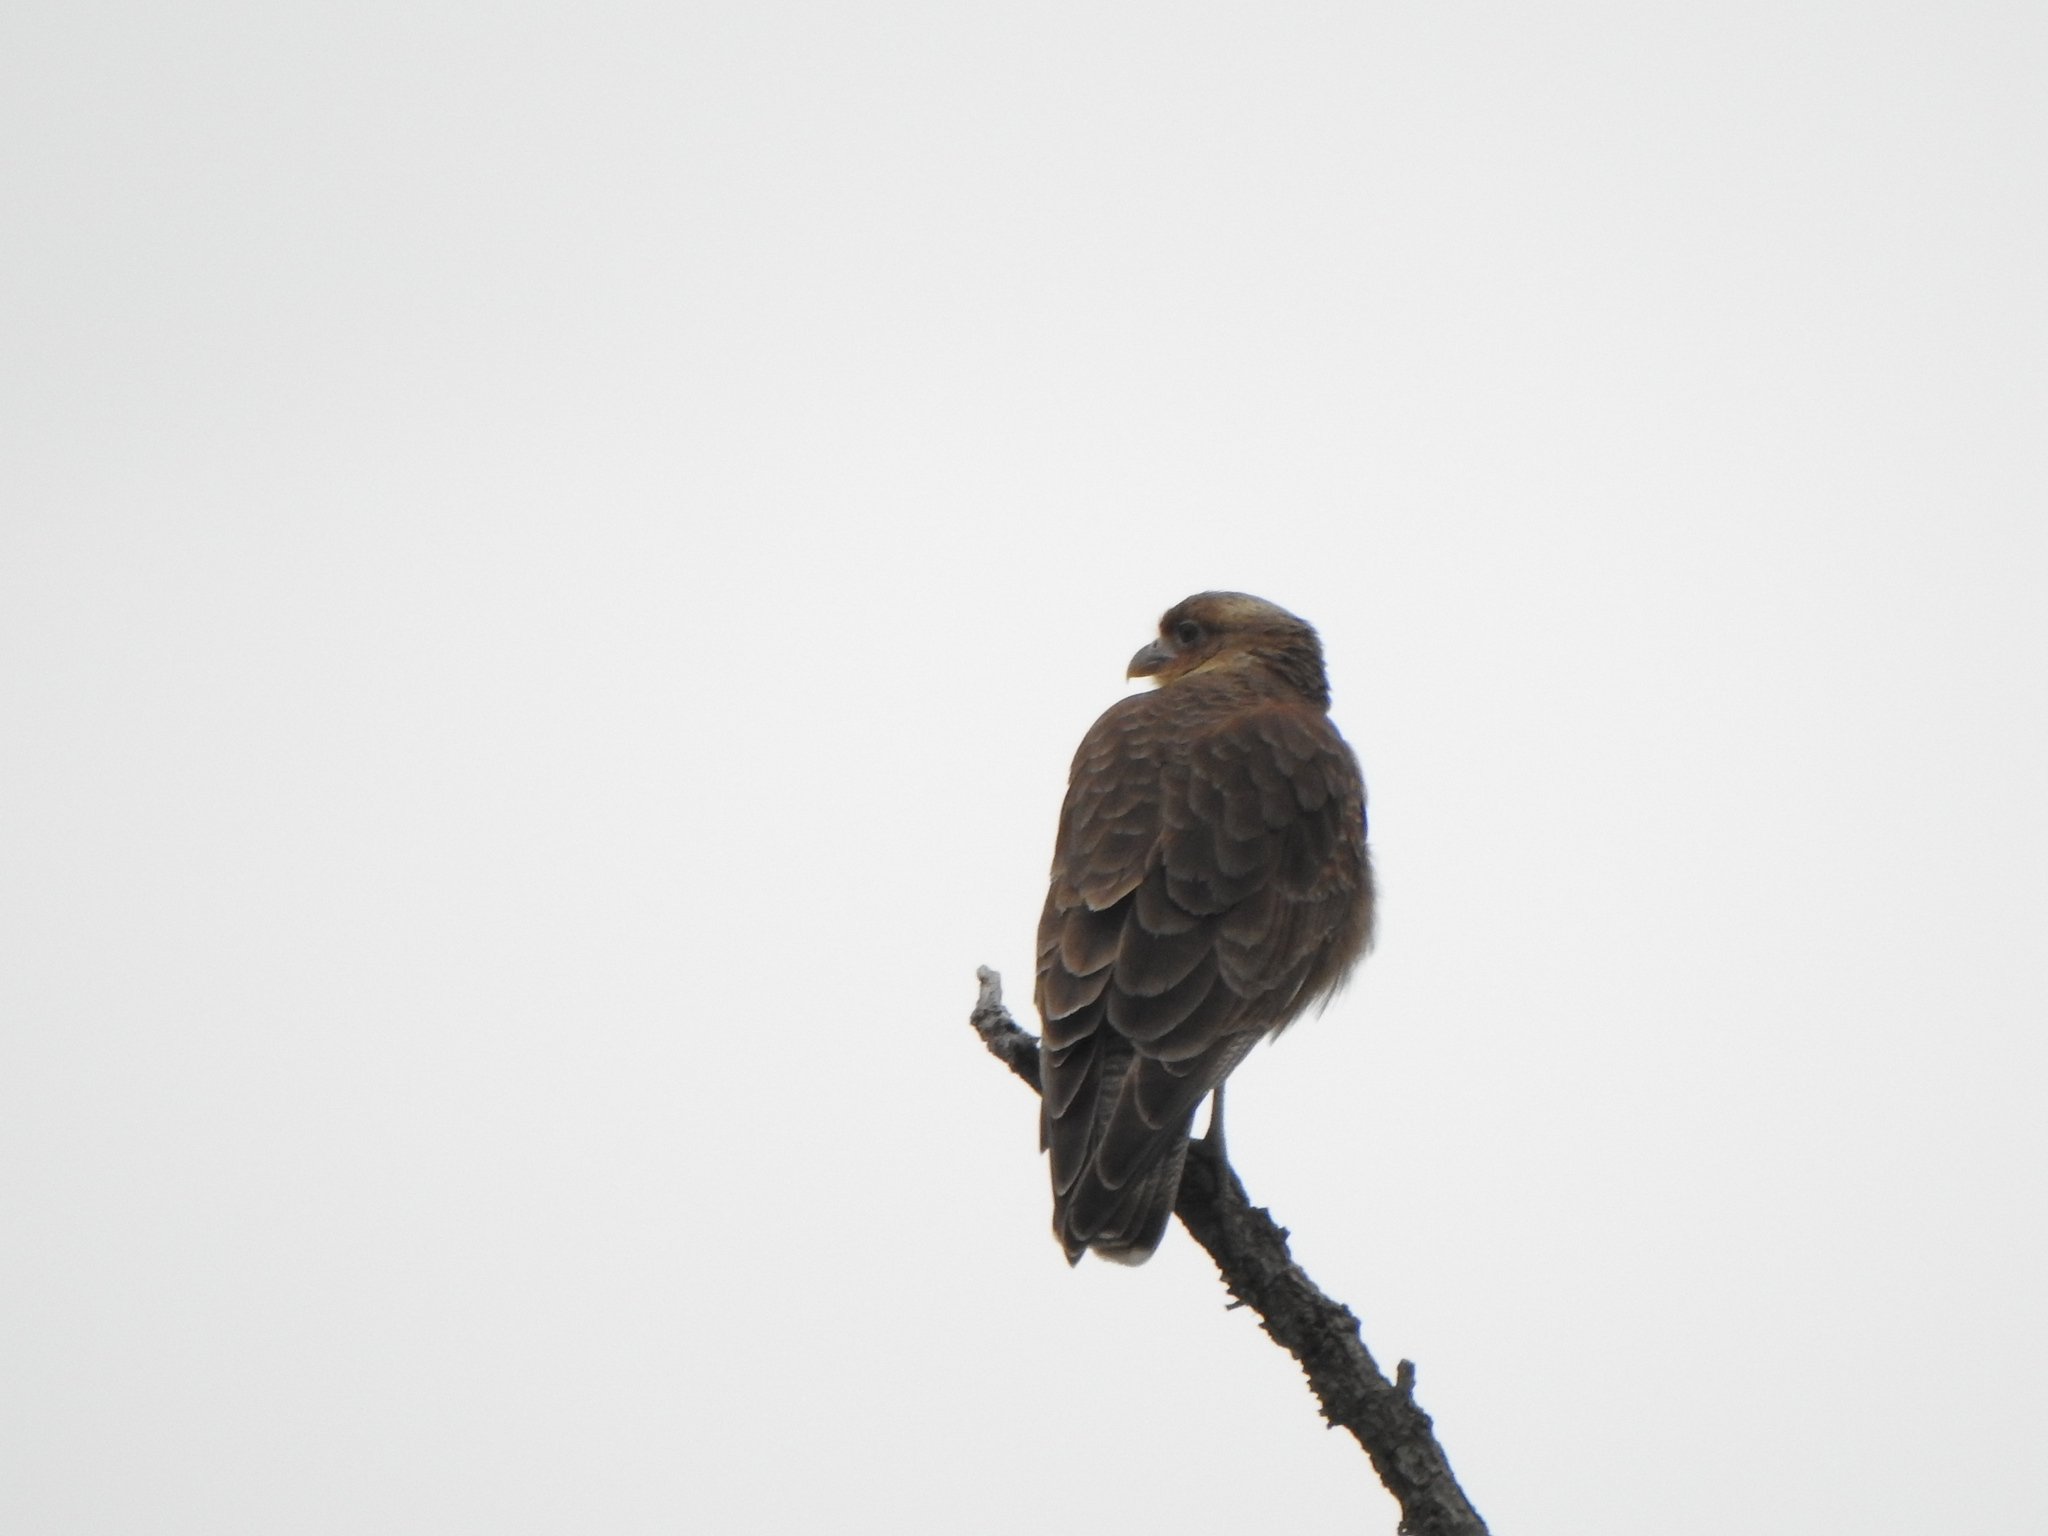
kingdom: Animalia
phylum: Chordata
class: Aves
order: Falconiformes
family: Falconidae
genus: Daptrius
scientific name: Daptrius
